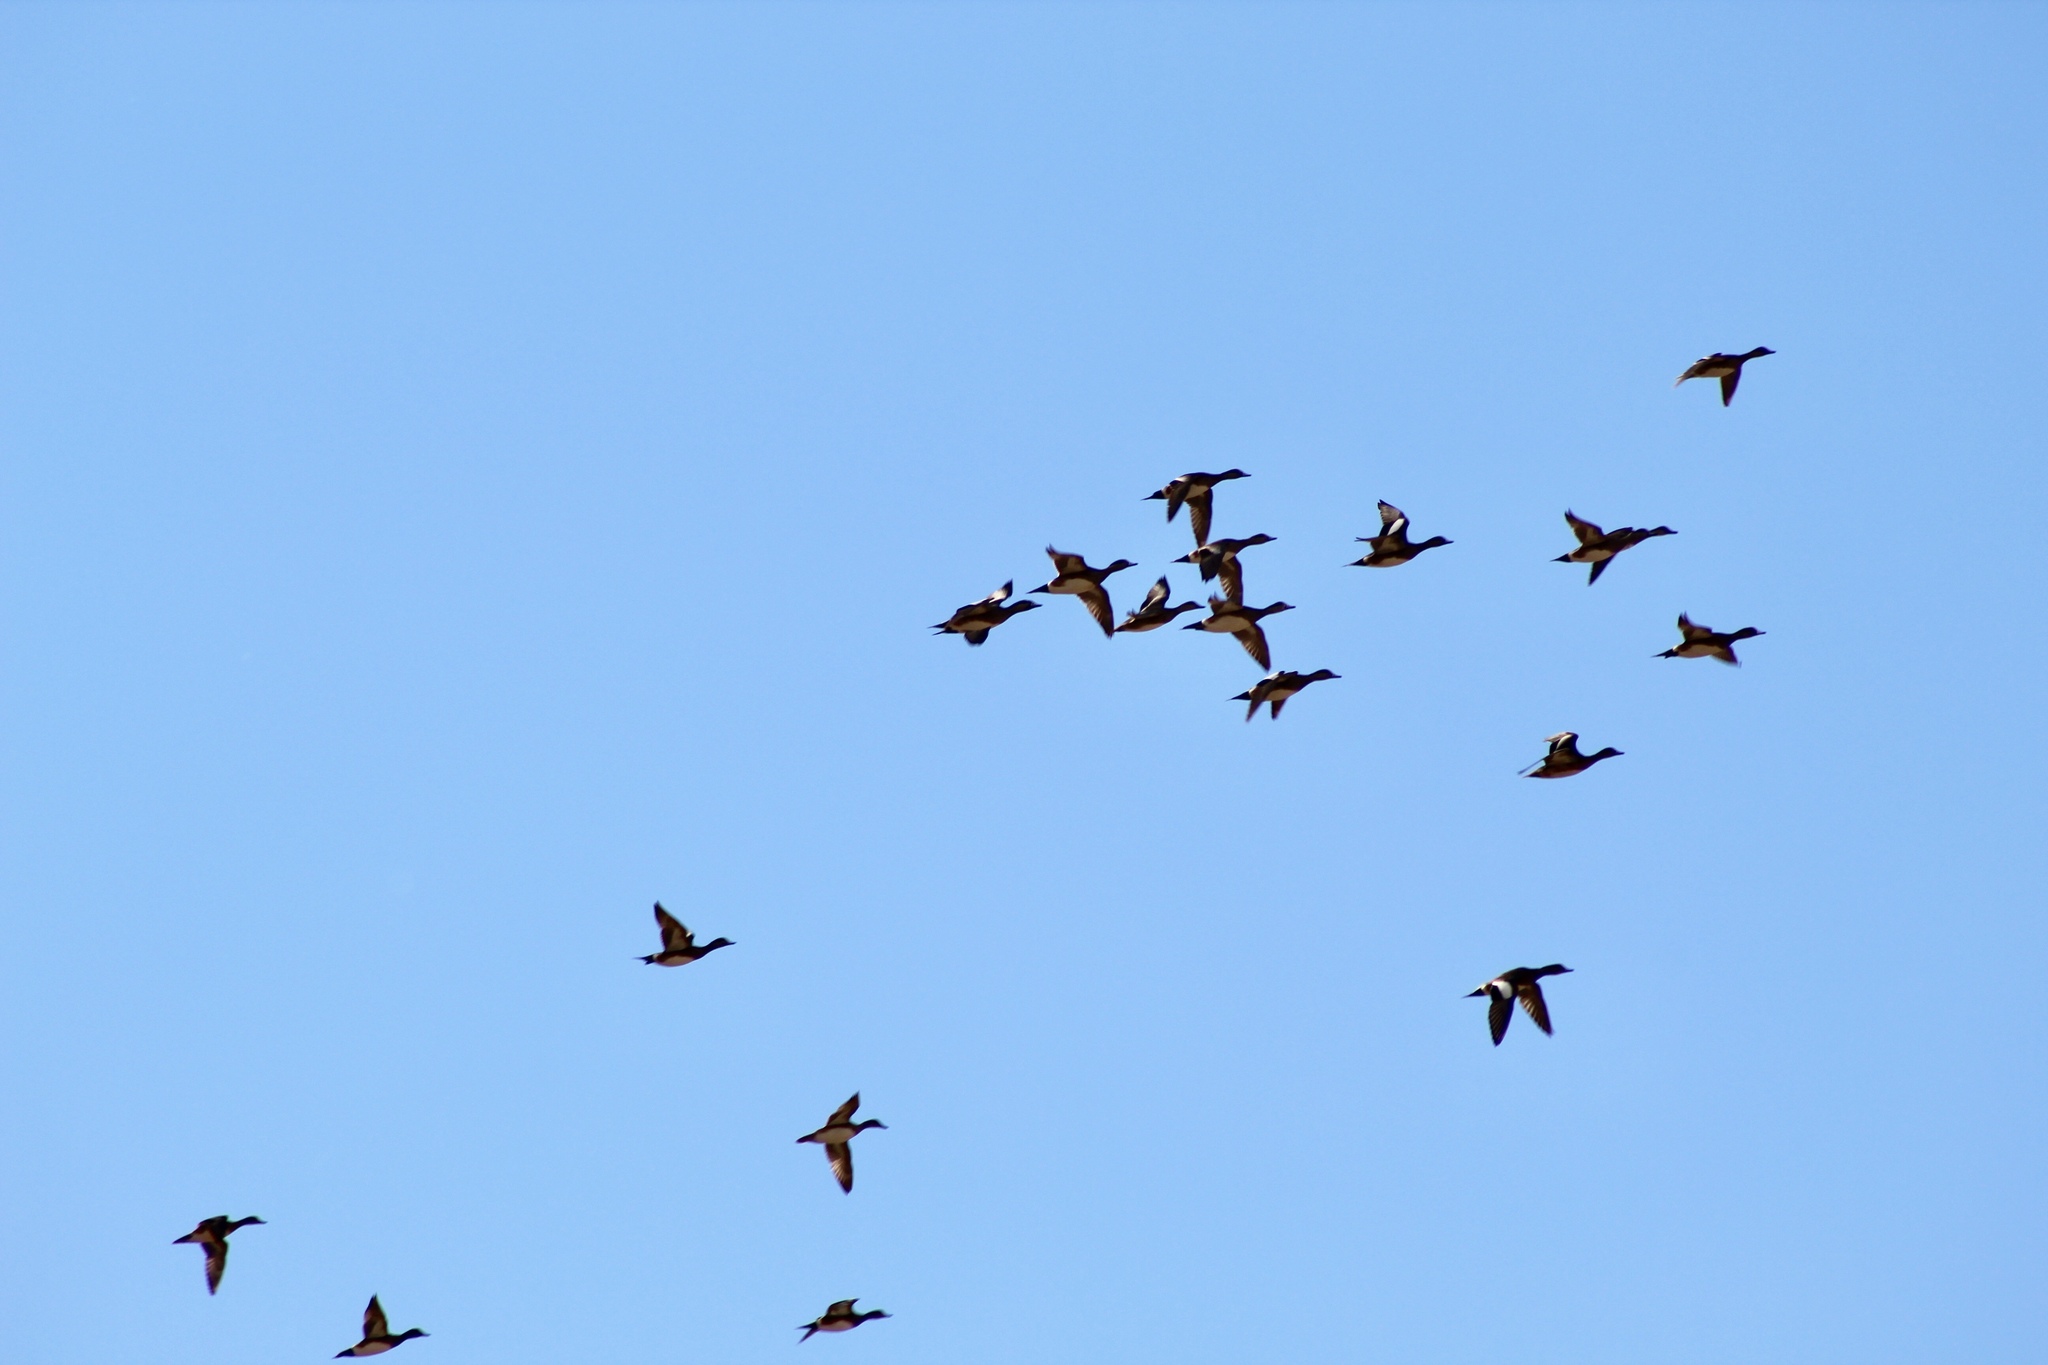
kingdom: Animalia
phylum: Chordata
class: Aves
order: Anseriformes
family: Anatidae
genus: Mareca
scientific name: Mareca americana
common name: American wigeon
